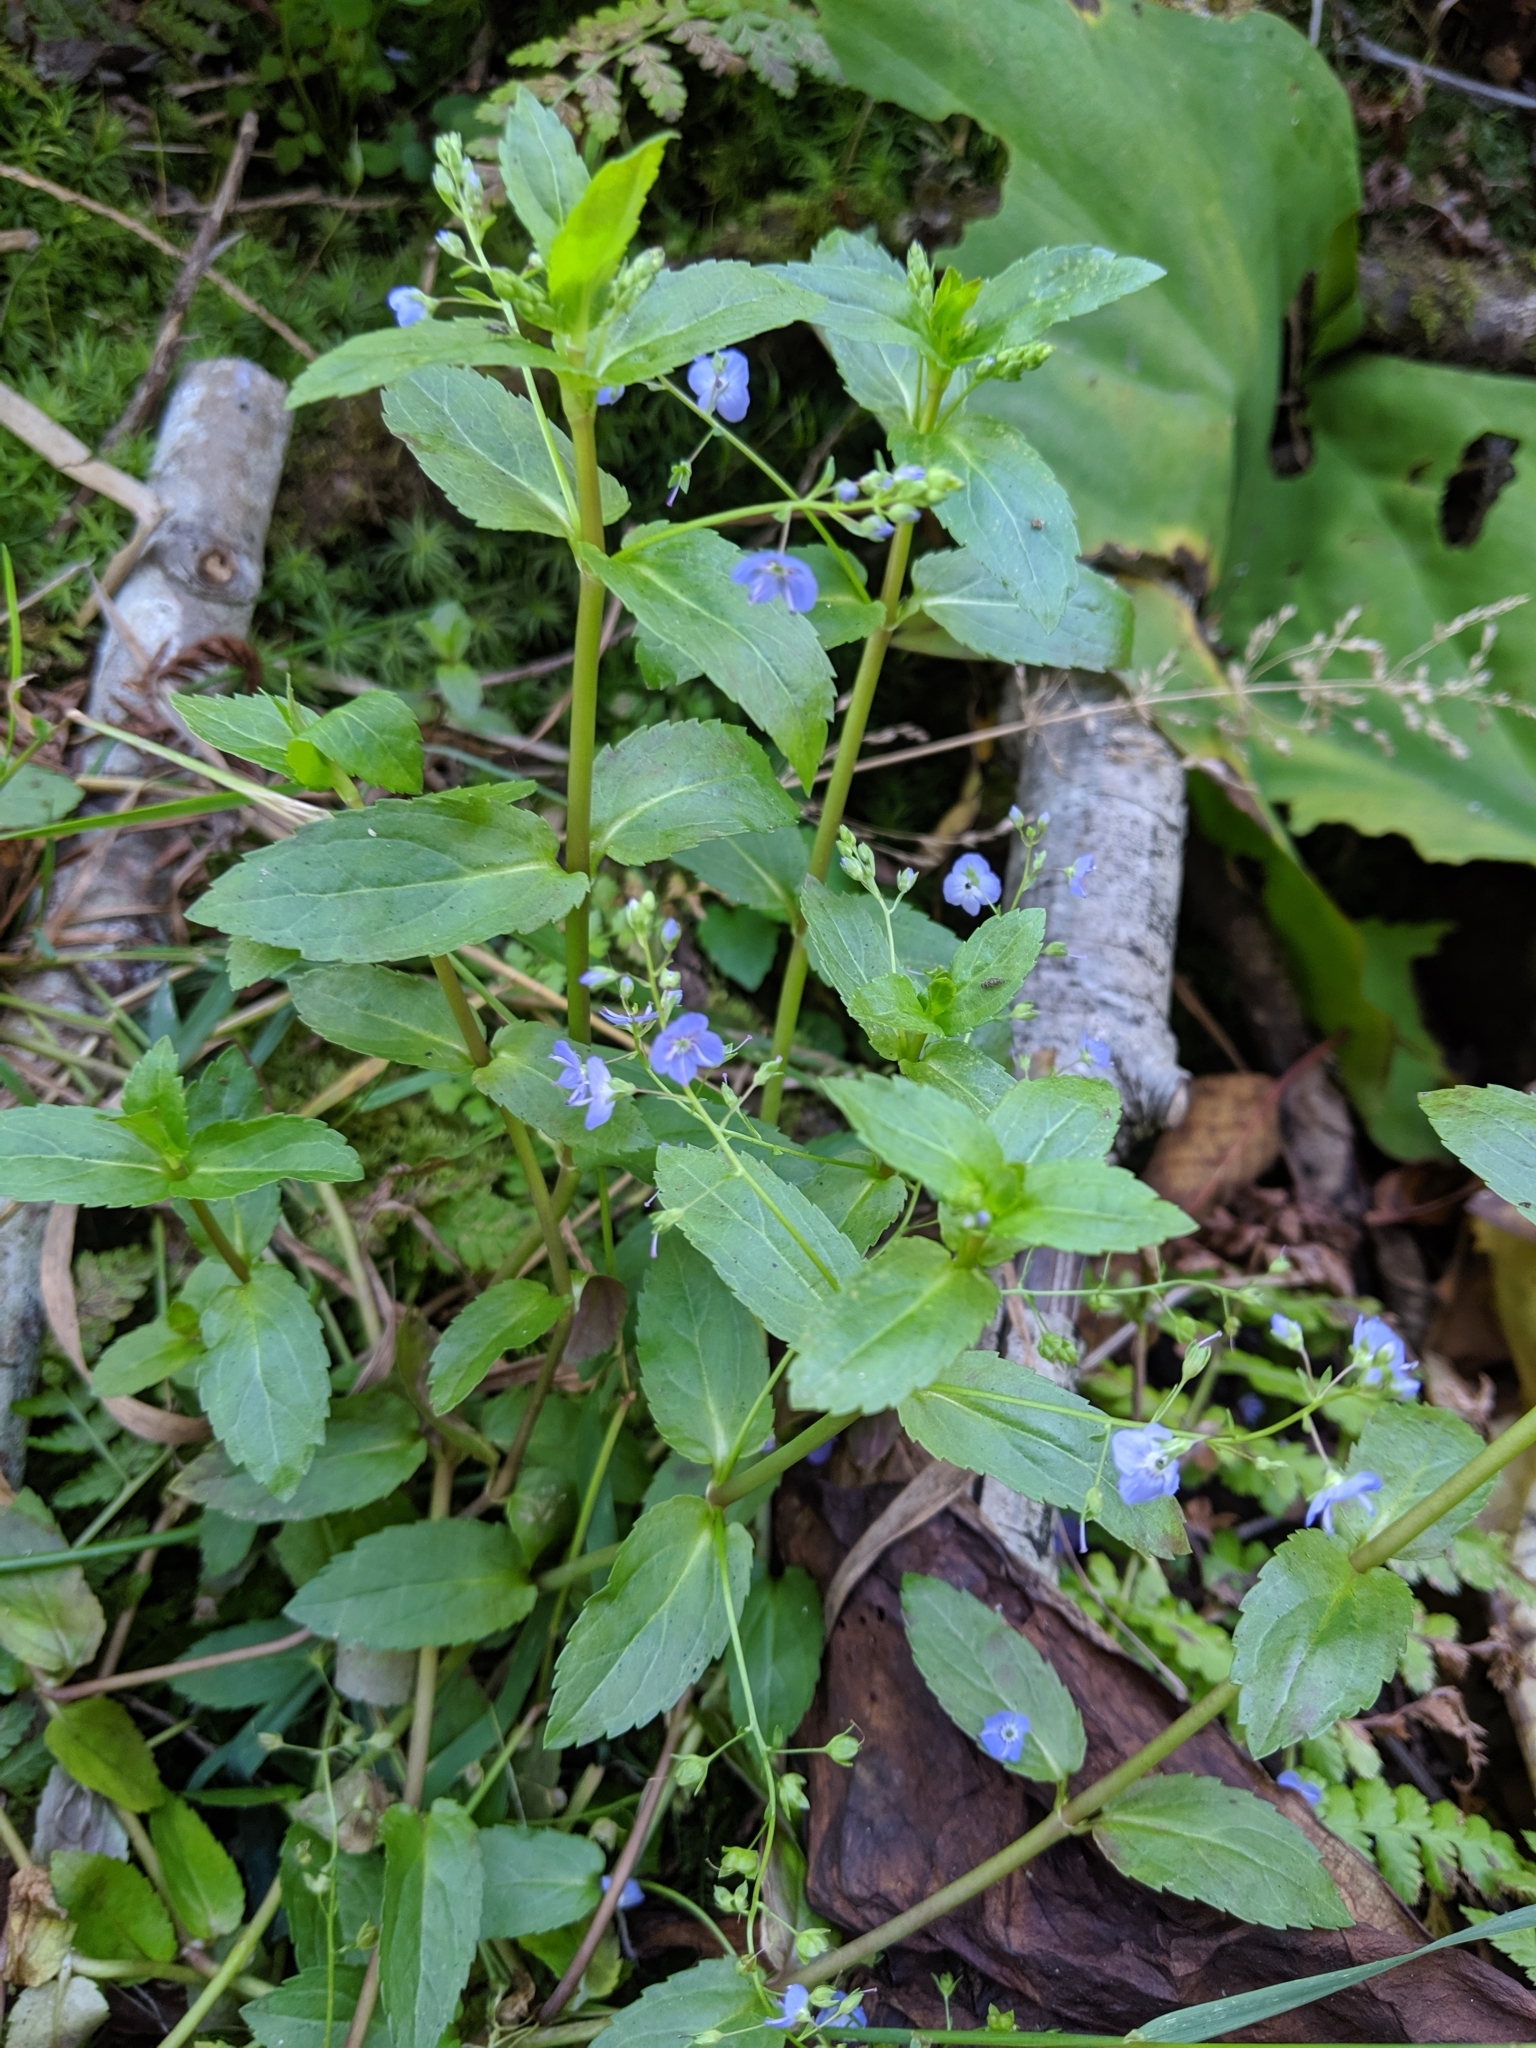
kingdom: Plantae
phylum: Tracheophyta
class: Magnoliopsida
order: Lamiales
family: Plantaginaceae
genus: Veronica
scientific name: Veronica americana
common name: American brooklime
